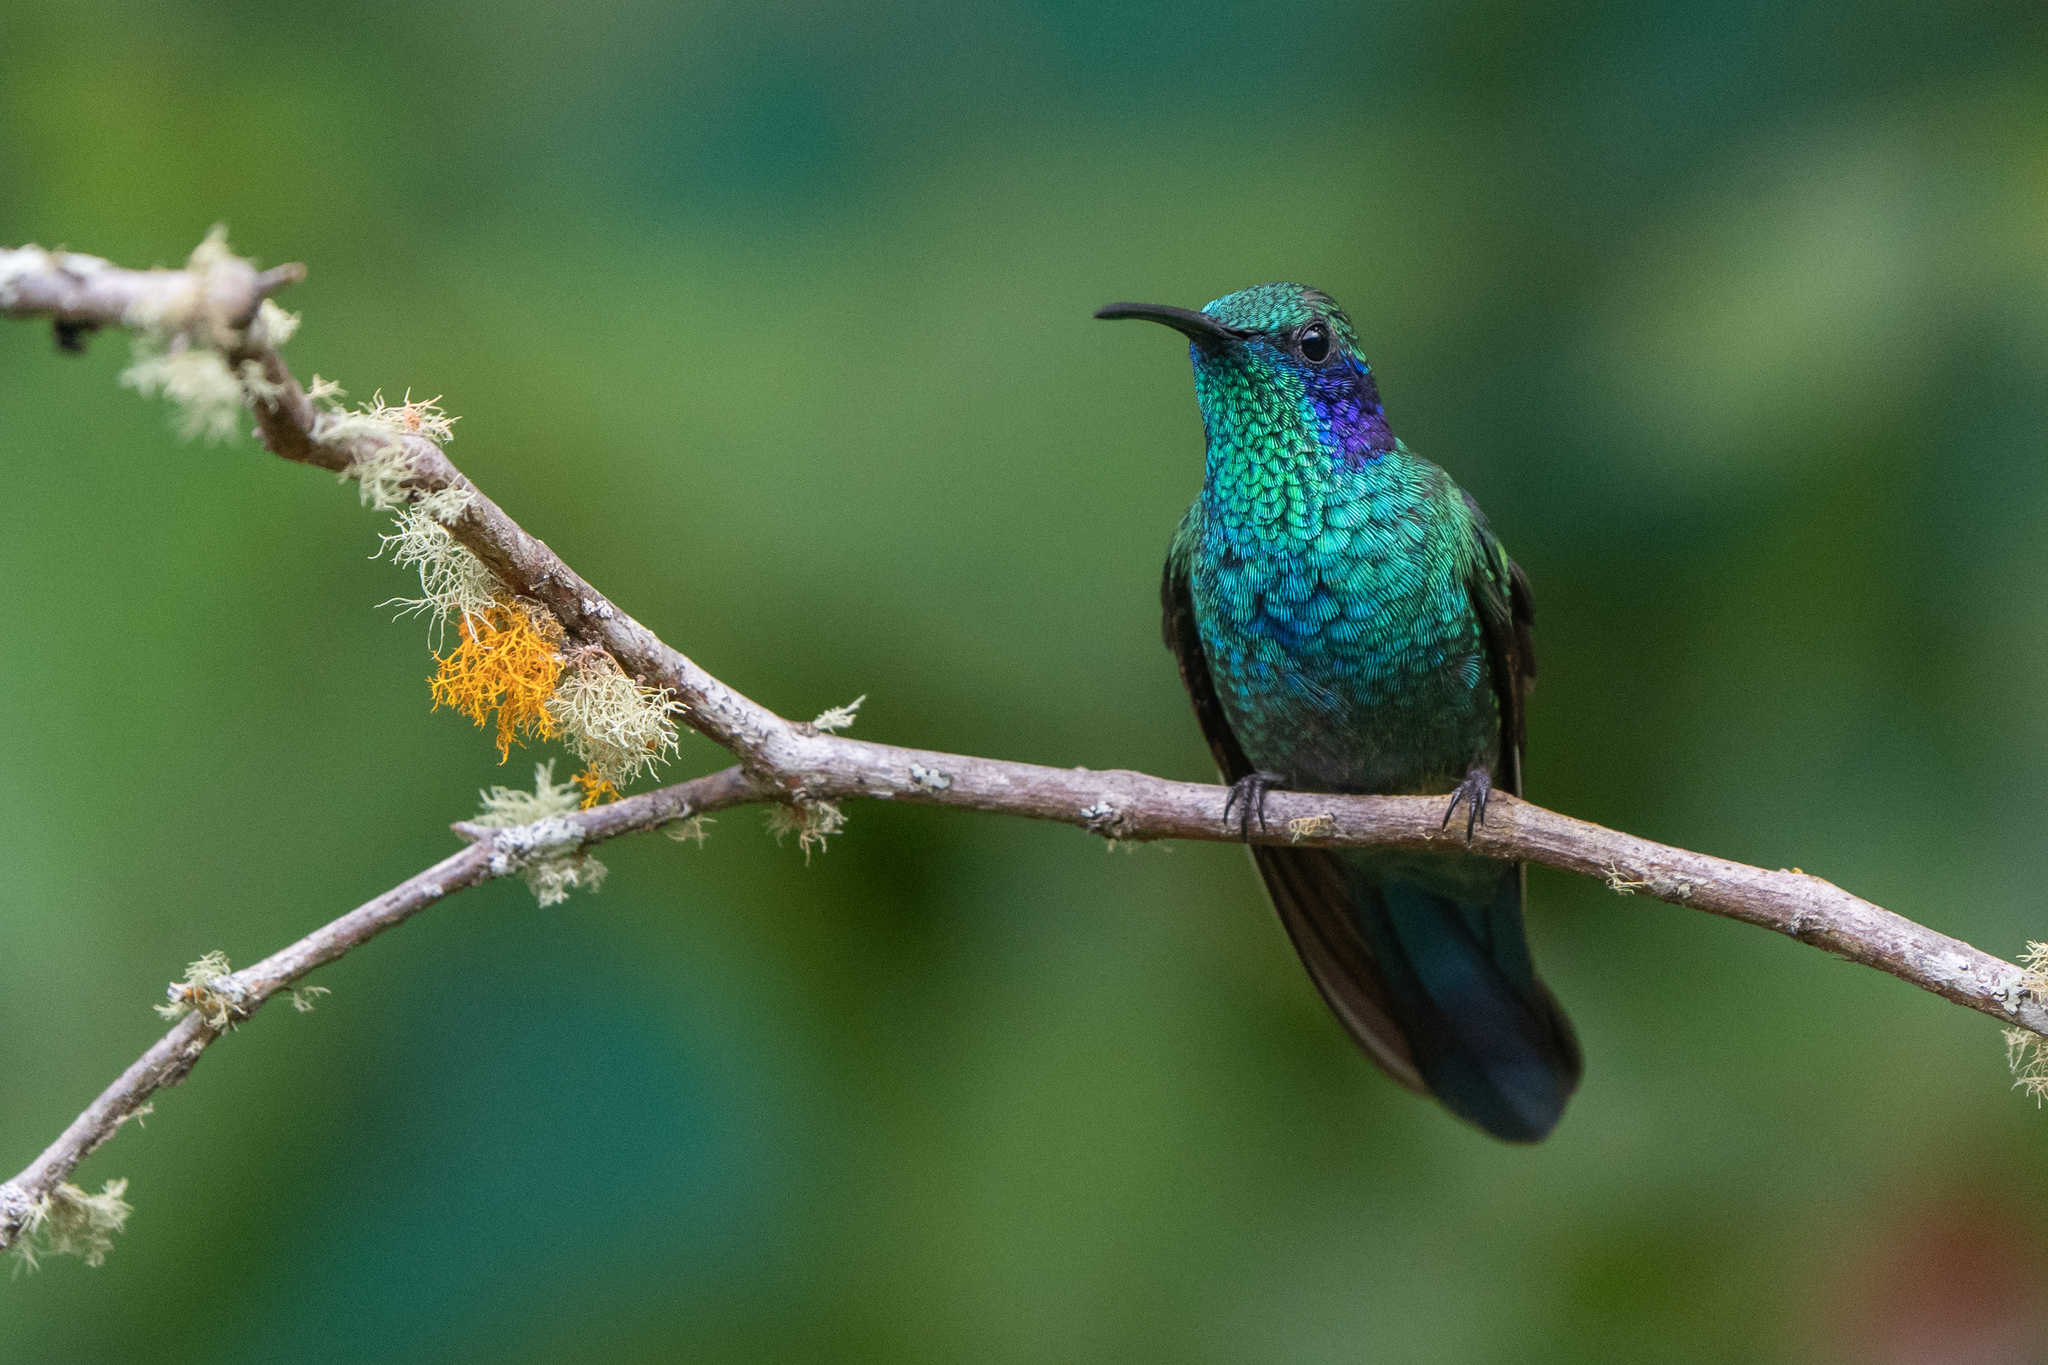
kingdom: Animalia
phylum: Chordata
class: Aves
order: Apodiformes
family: Trochilidae
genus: Colibri
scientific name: Colibri cyanotus
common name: Lesser violetear
